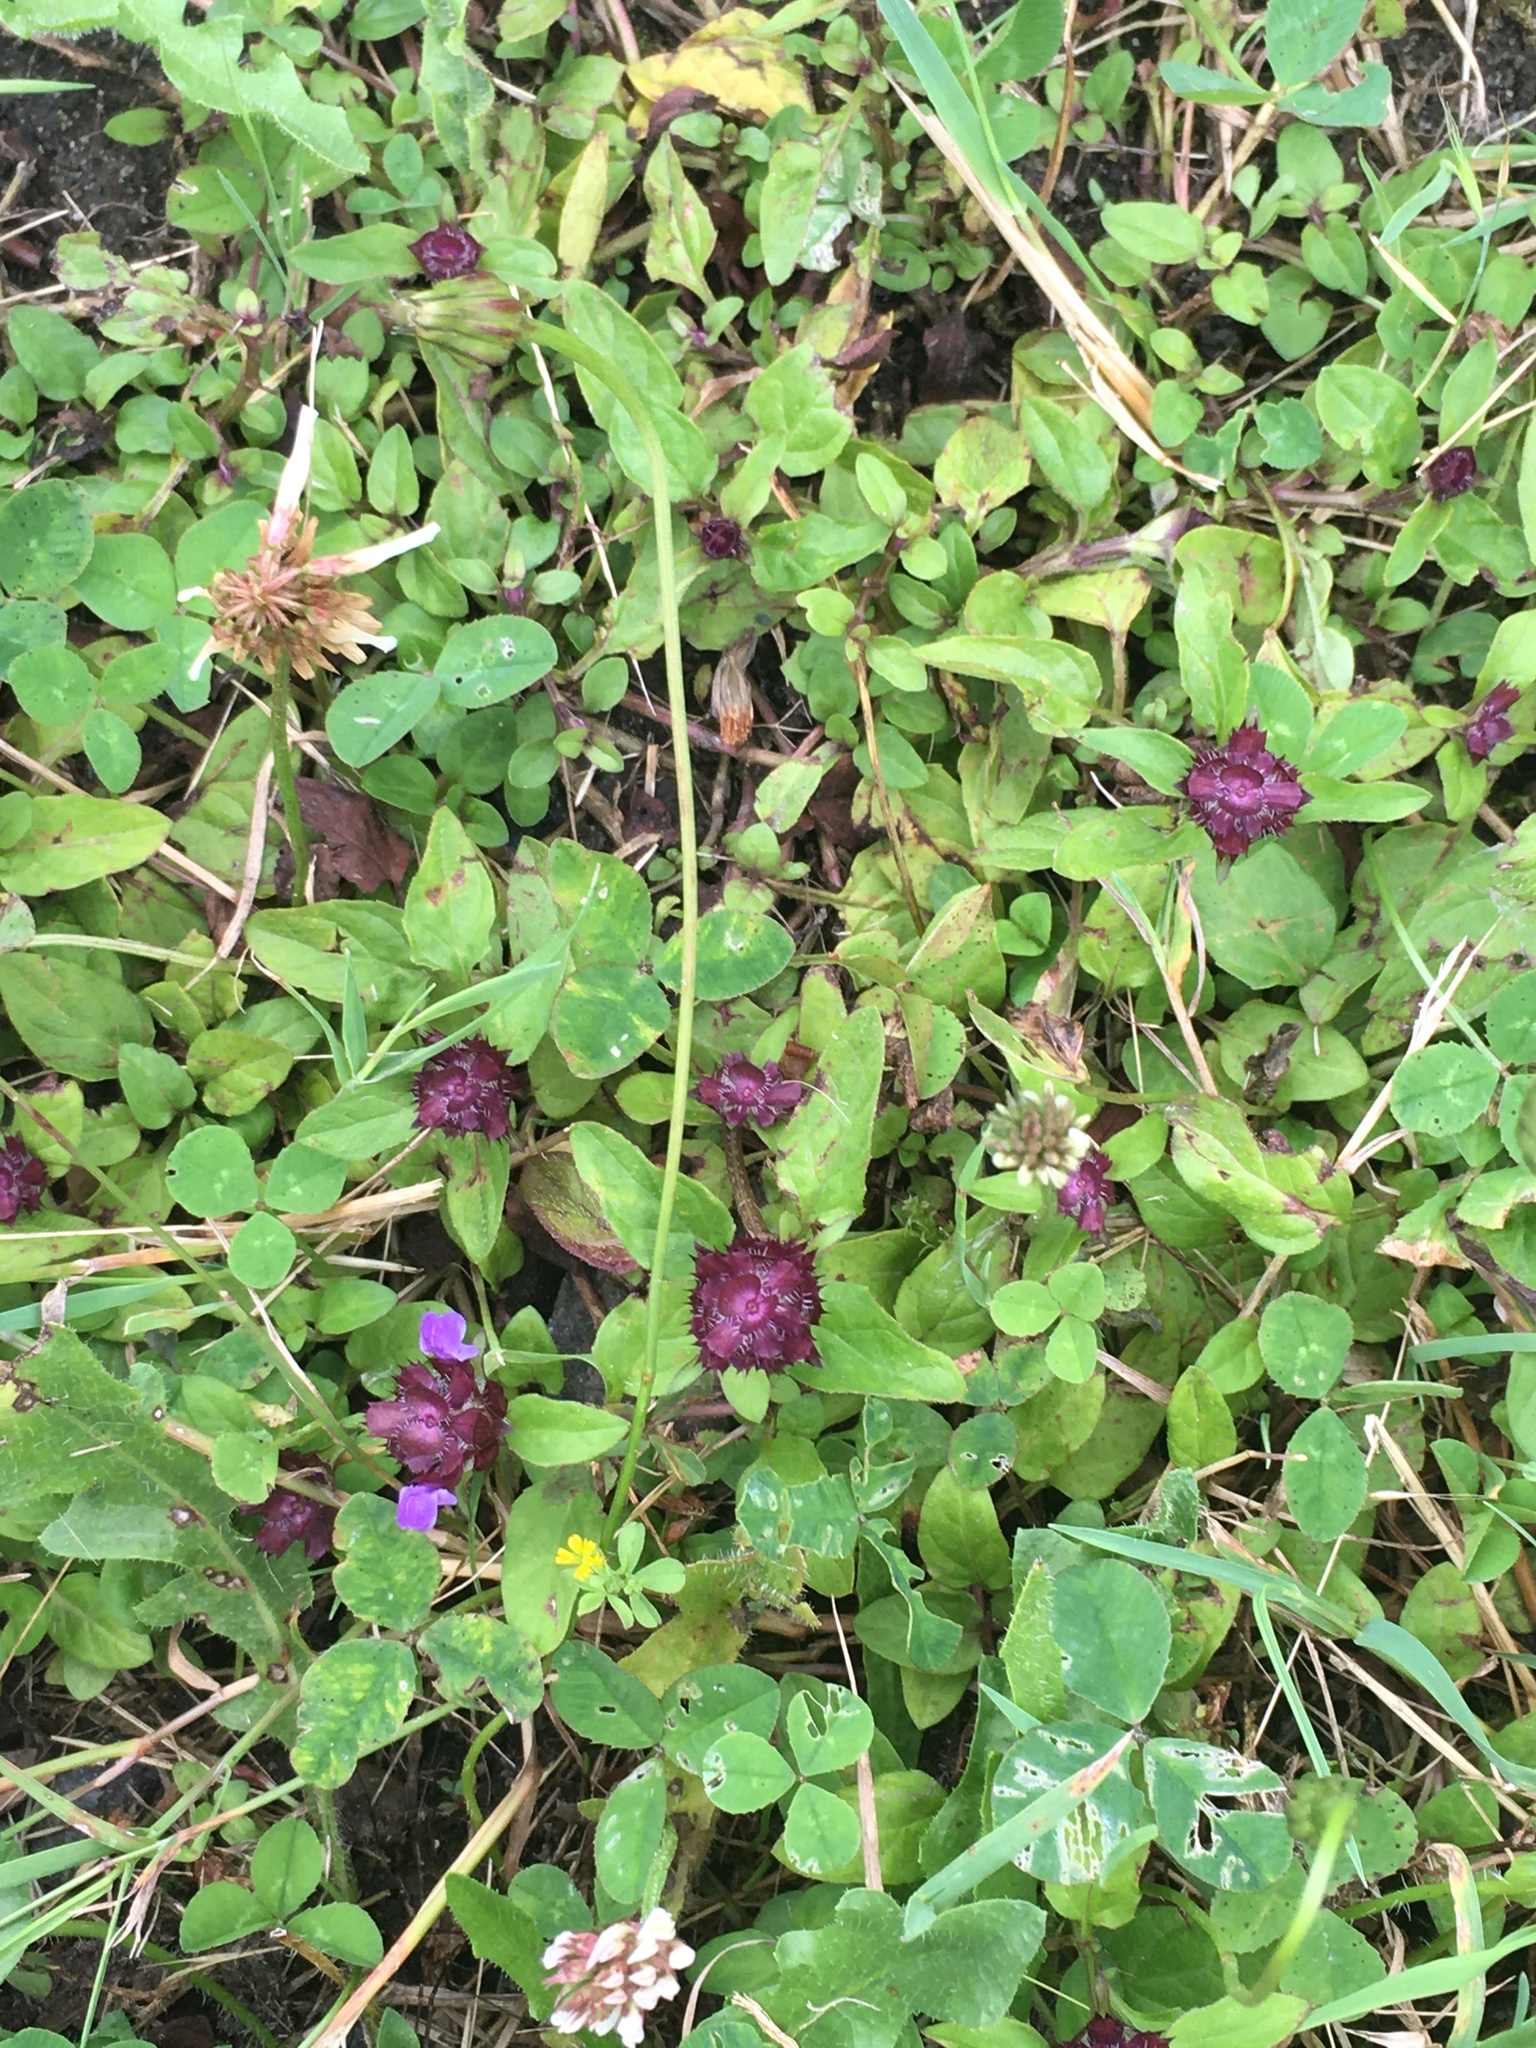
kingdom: Plantae
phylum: Tracheophyta
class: Magnoliopsida
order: Lamiales
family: Lamiaceae
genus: Prunella
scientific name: Prunella vulgaris
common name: Heal-all
